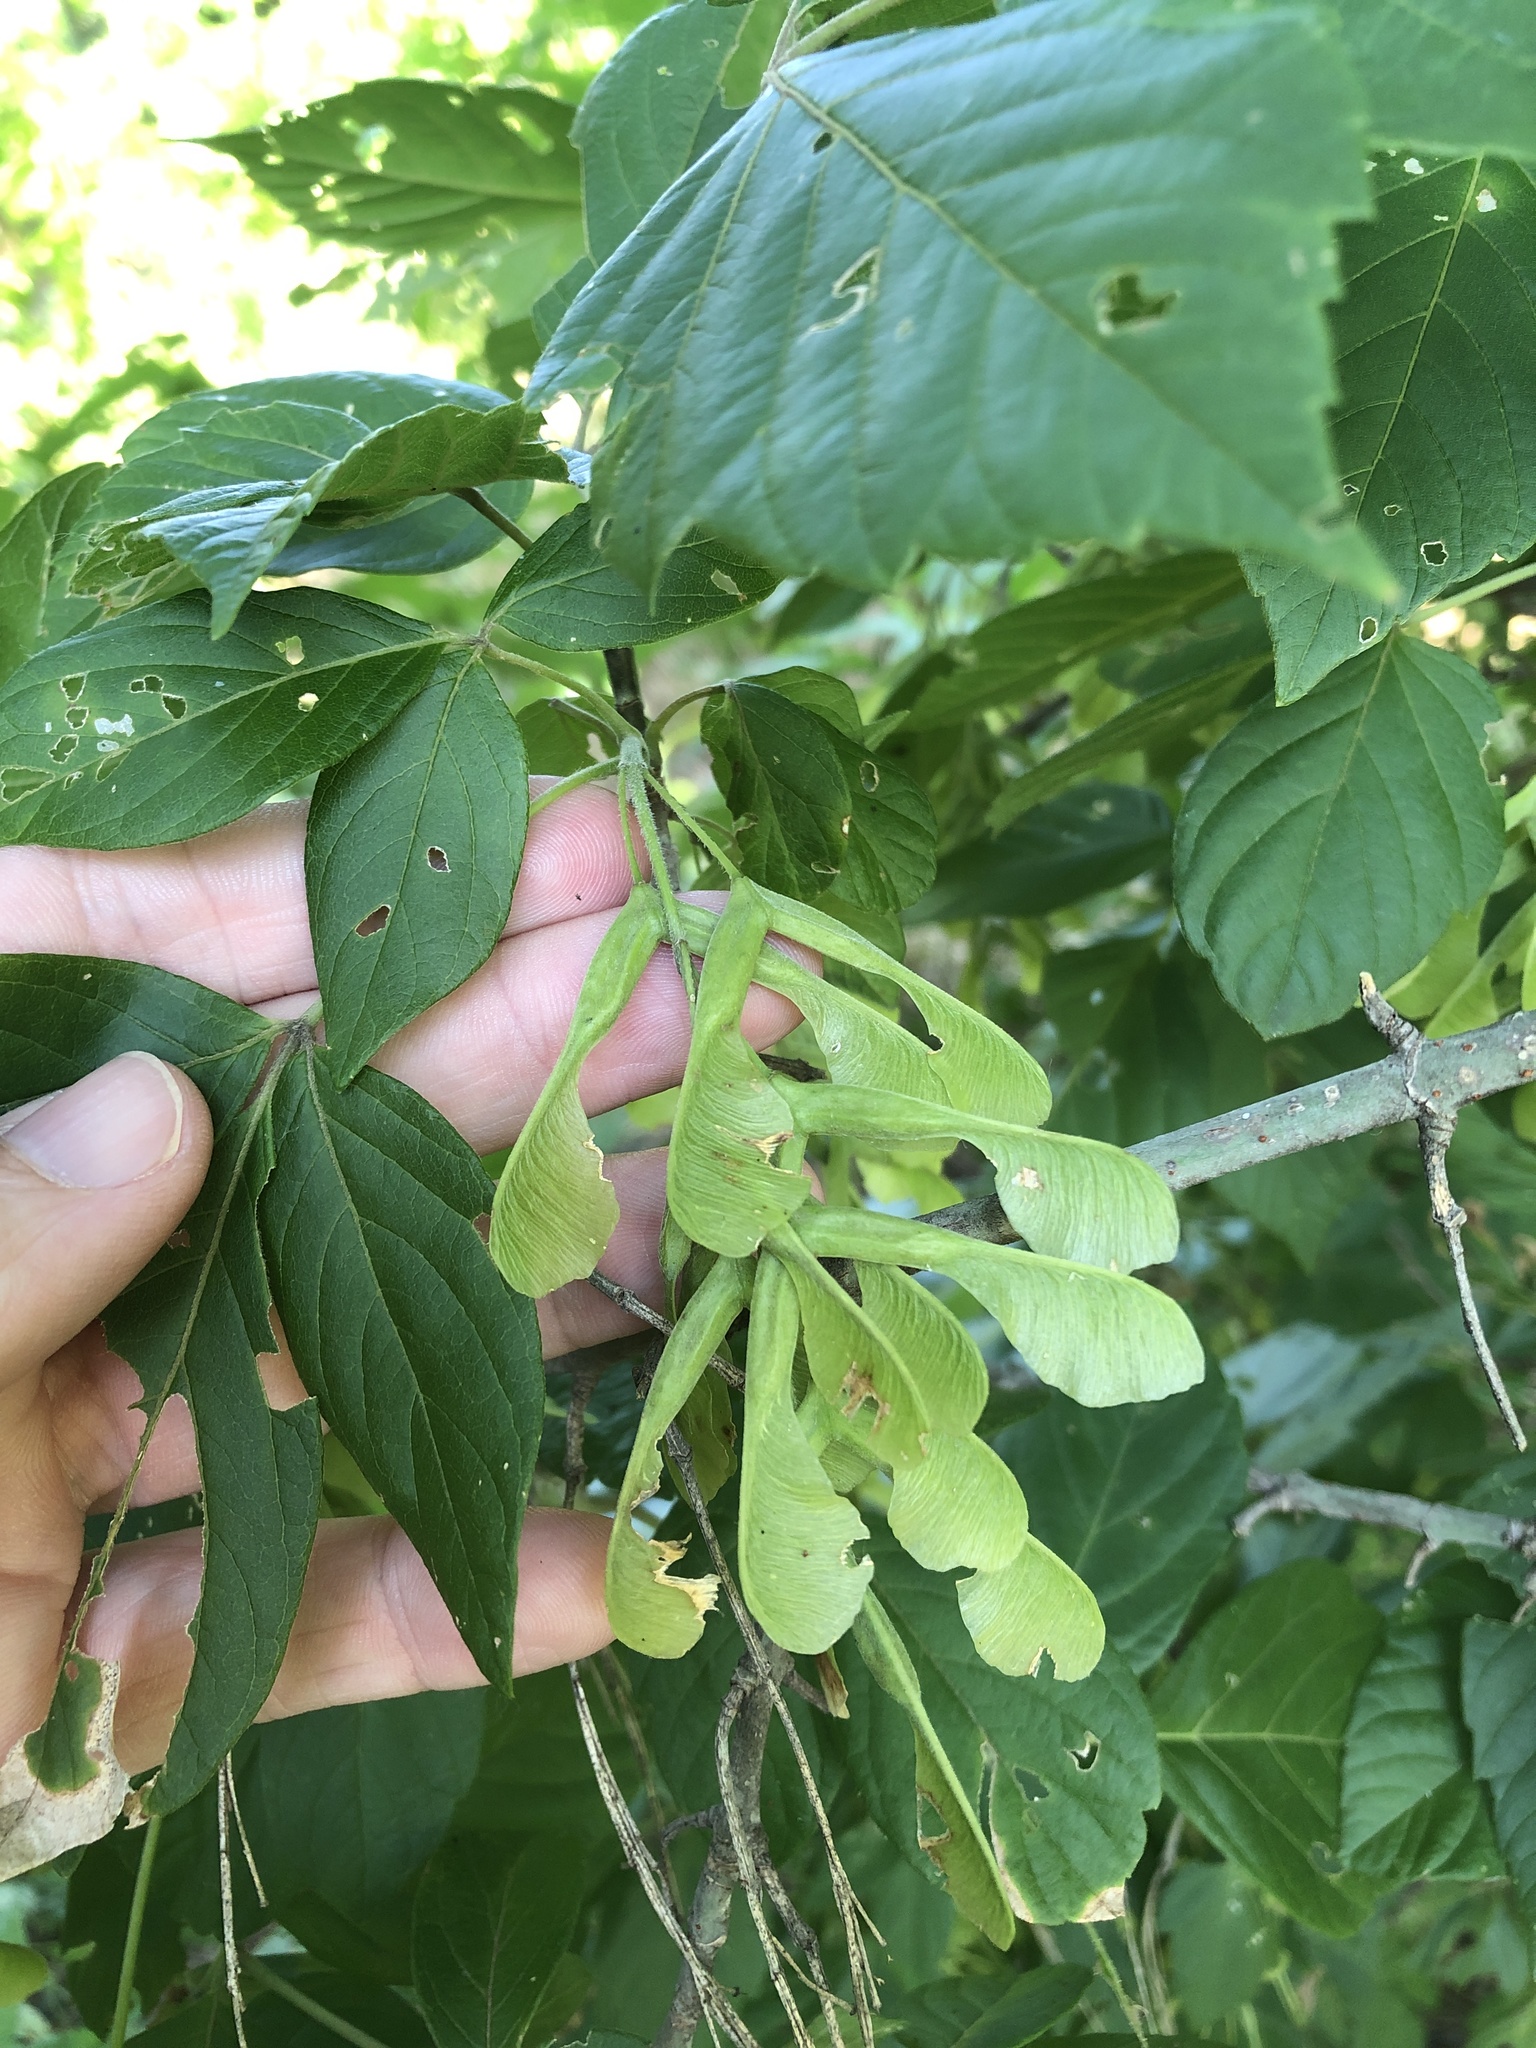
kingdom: Plantae
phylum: Tracheophyta
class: Magnoliopsida
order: Sapindales
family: Sapindaceae
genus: Acer
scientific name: Acer negundo
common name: Ashleaf maple
